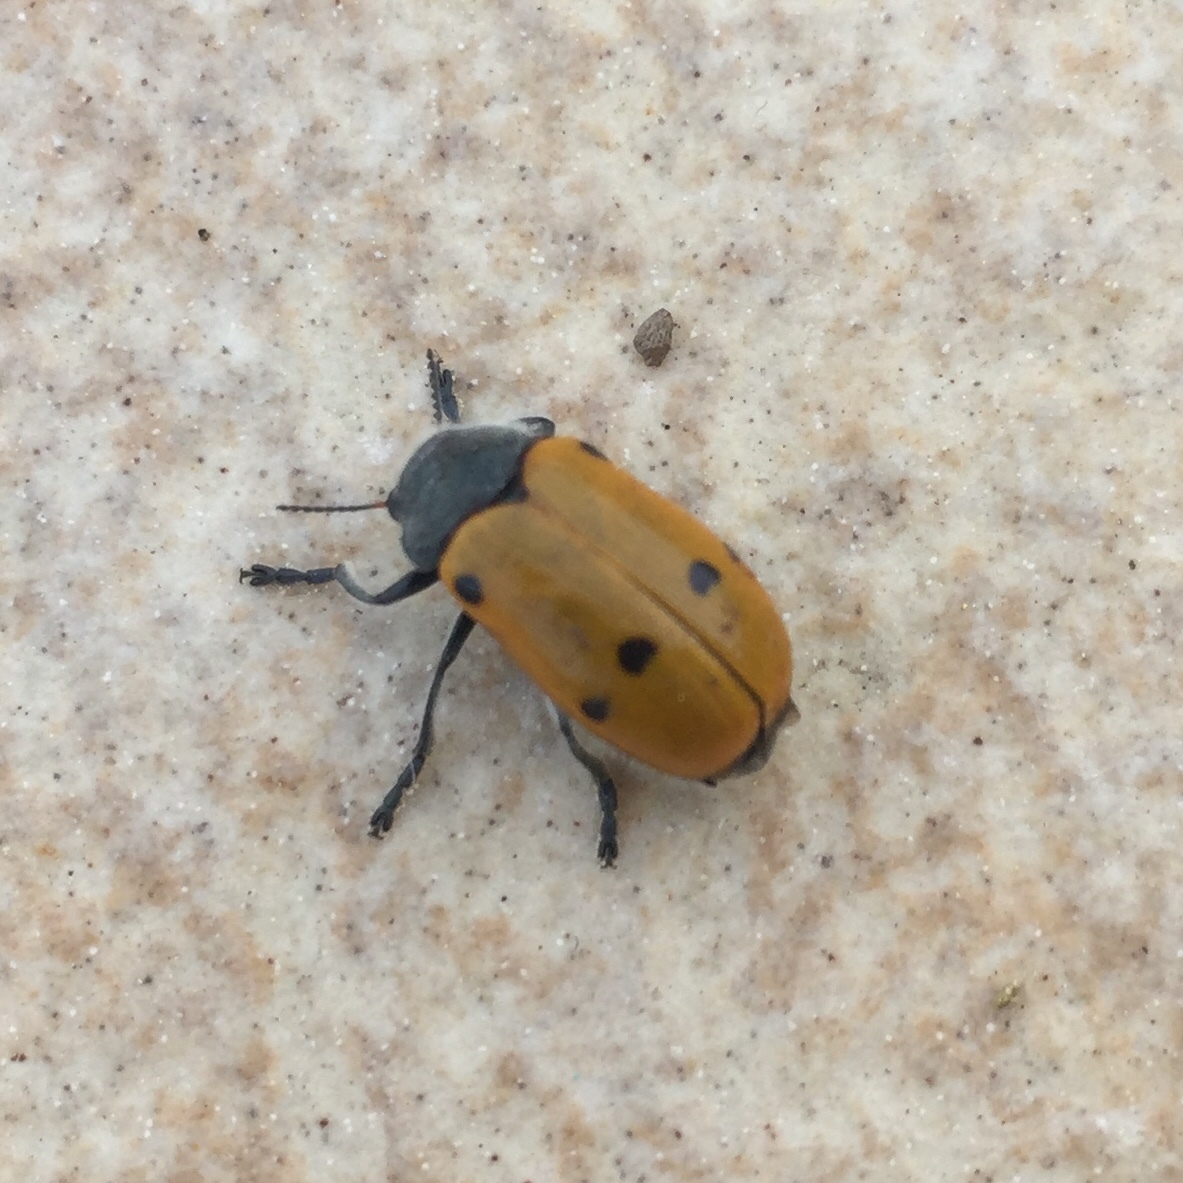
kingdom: Animalia
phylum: Arthropoda
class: Insecta
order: Coleoptera
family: Chrysomelidae
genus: Lachnaia
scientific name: Lachnaia italica
